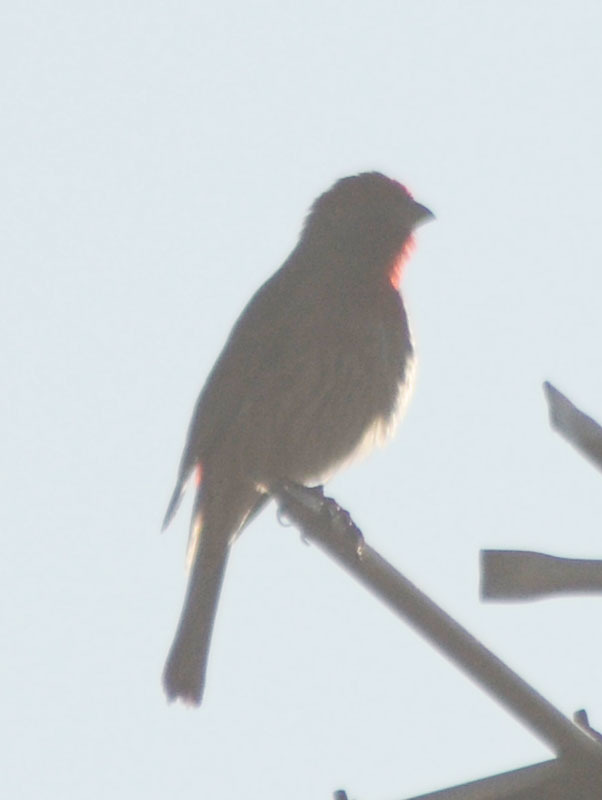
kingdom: Animalia
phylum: Chordata
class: Aves
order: Passeriformes
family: Fringillidae
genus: Haemorhous
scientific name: Haemorhous mexicanus
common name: House finch
